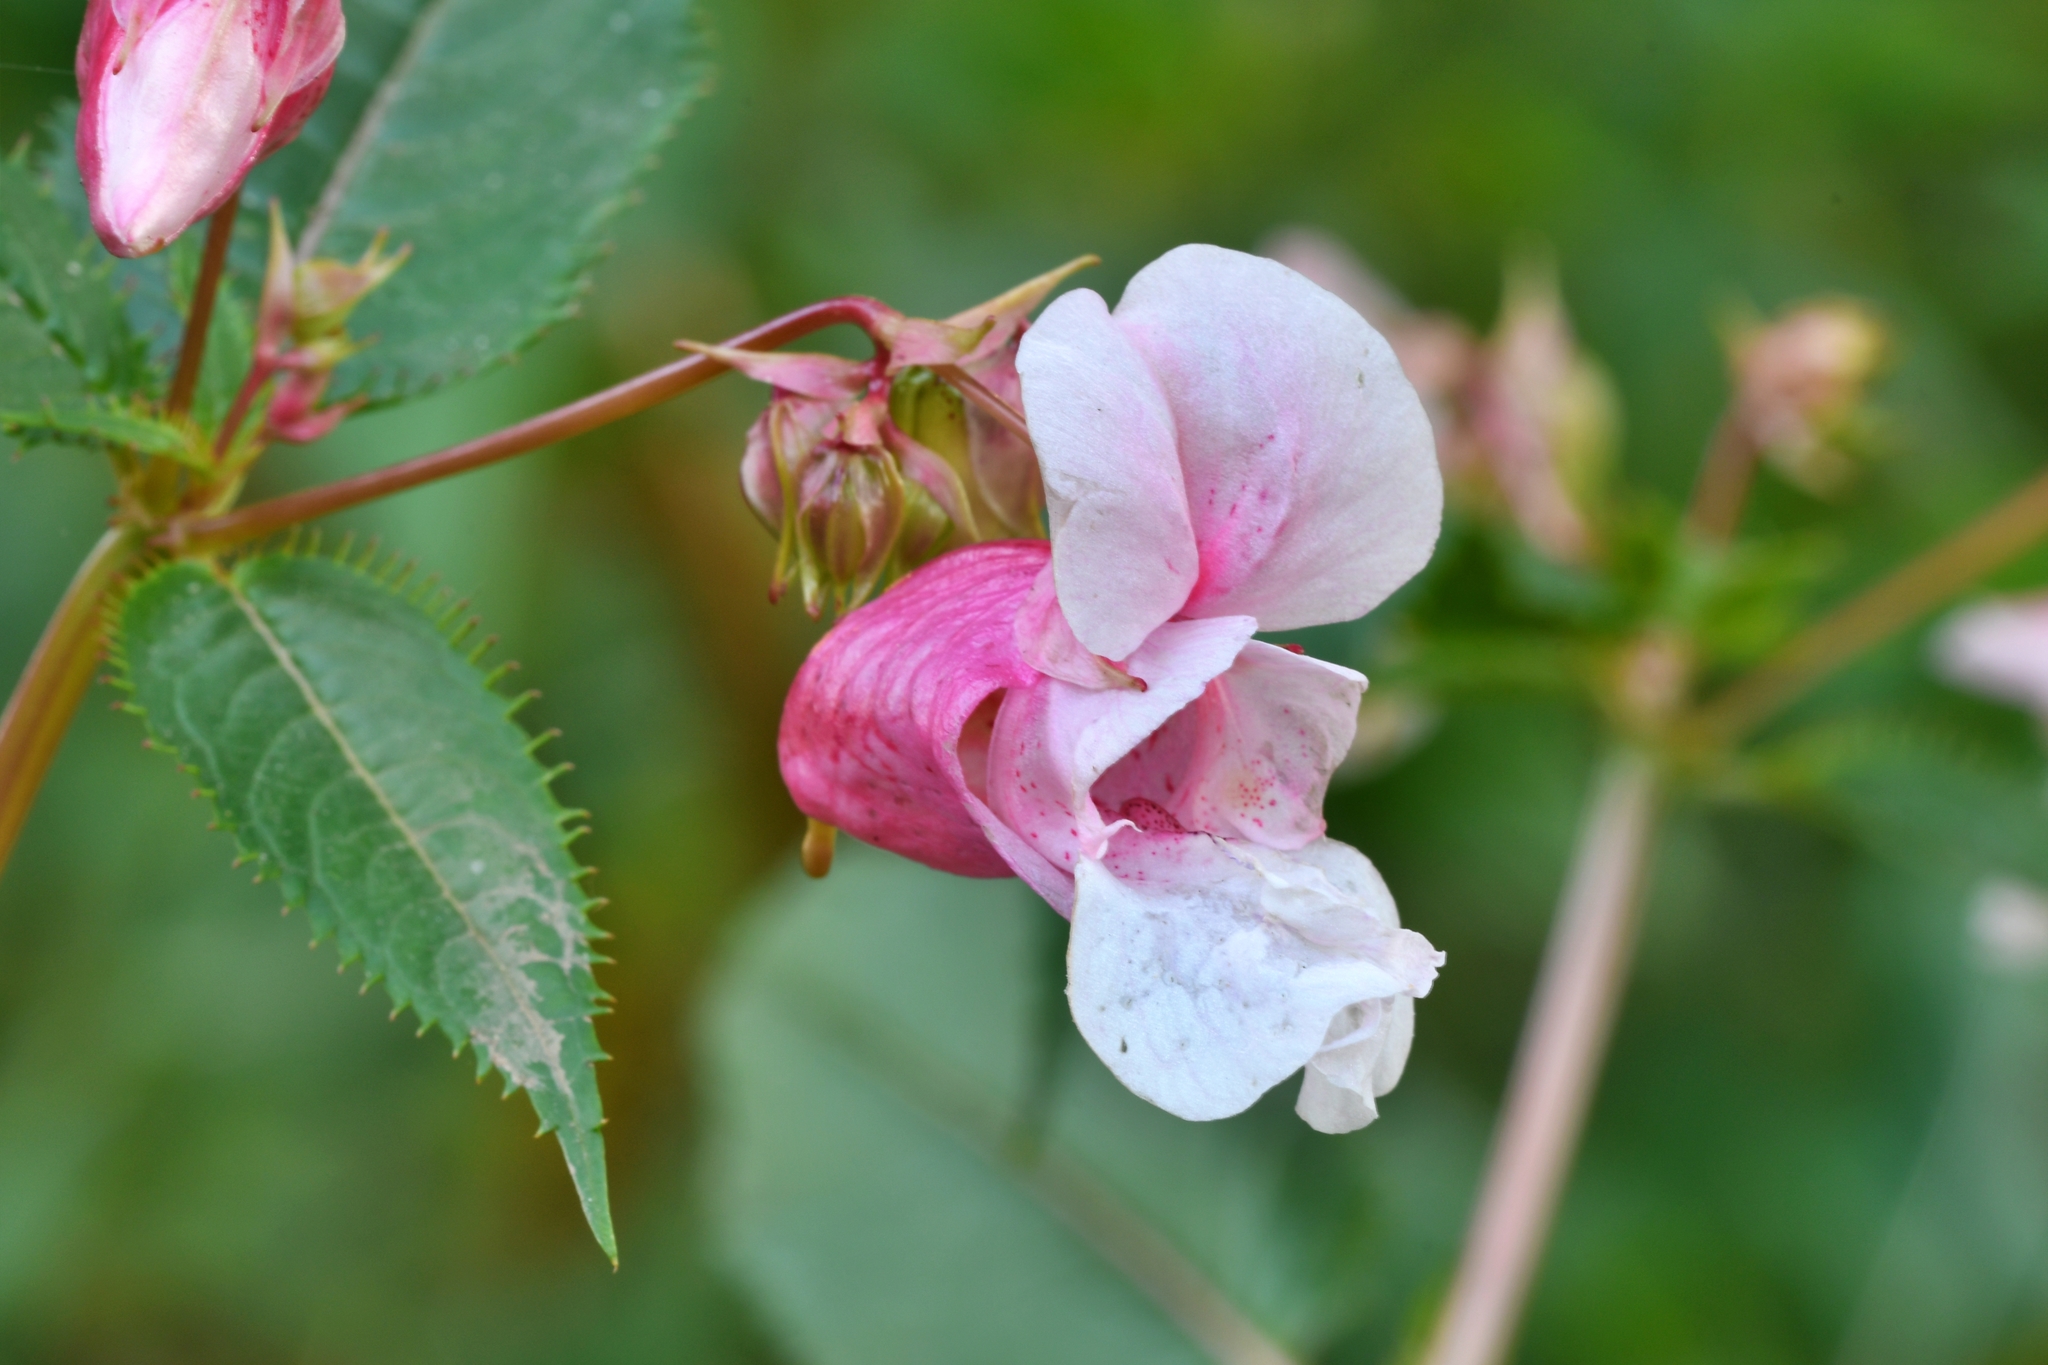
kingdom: Plantae
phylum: Tracheophyta
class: Magnoliopsida
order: Ericales
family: Balsaminaceae
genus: Impatiens
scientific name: Impatiens glandulifera
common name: Himalayan balsam
